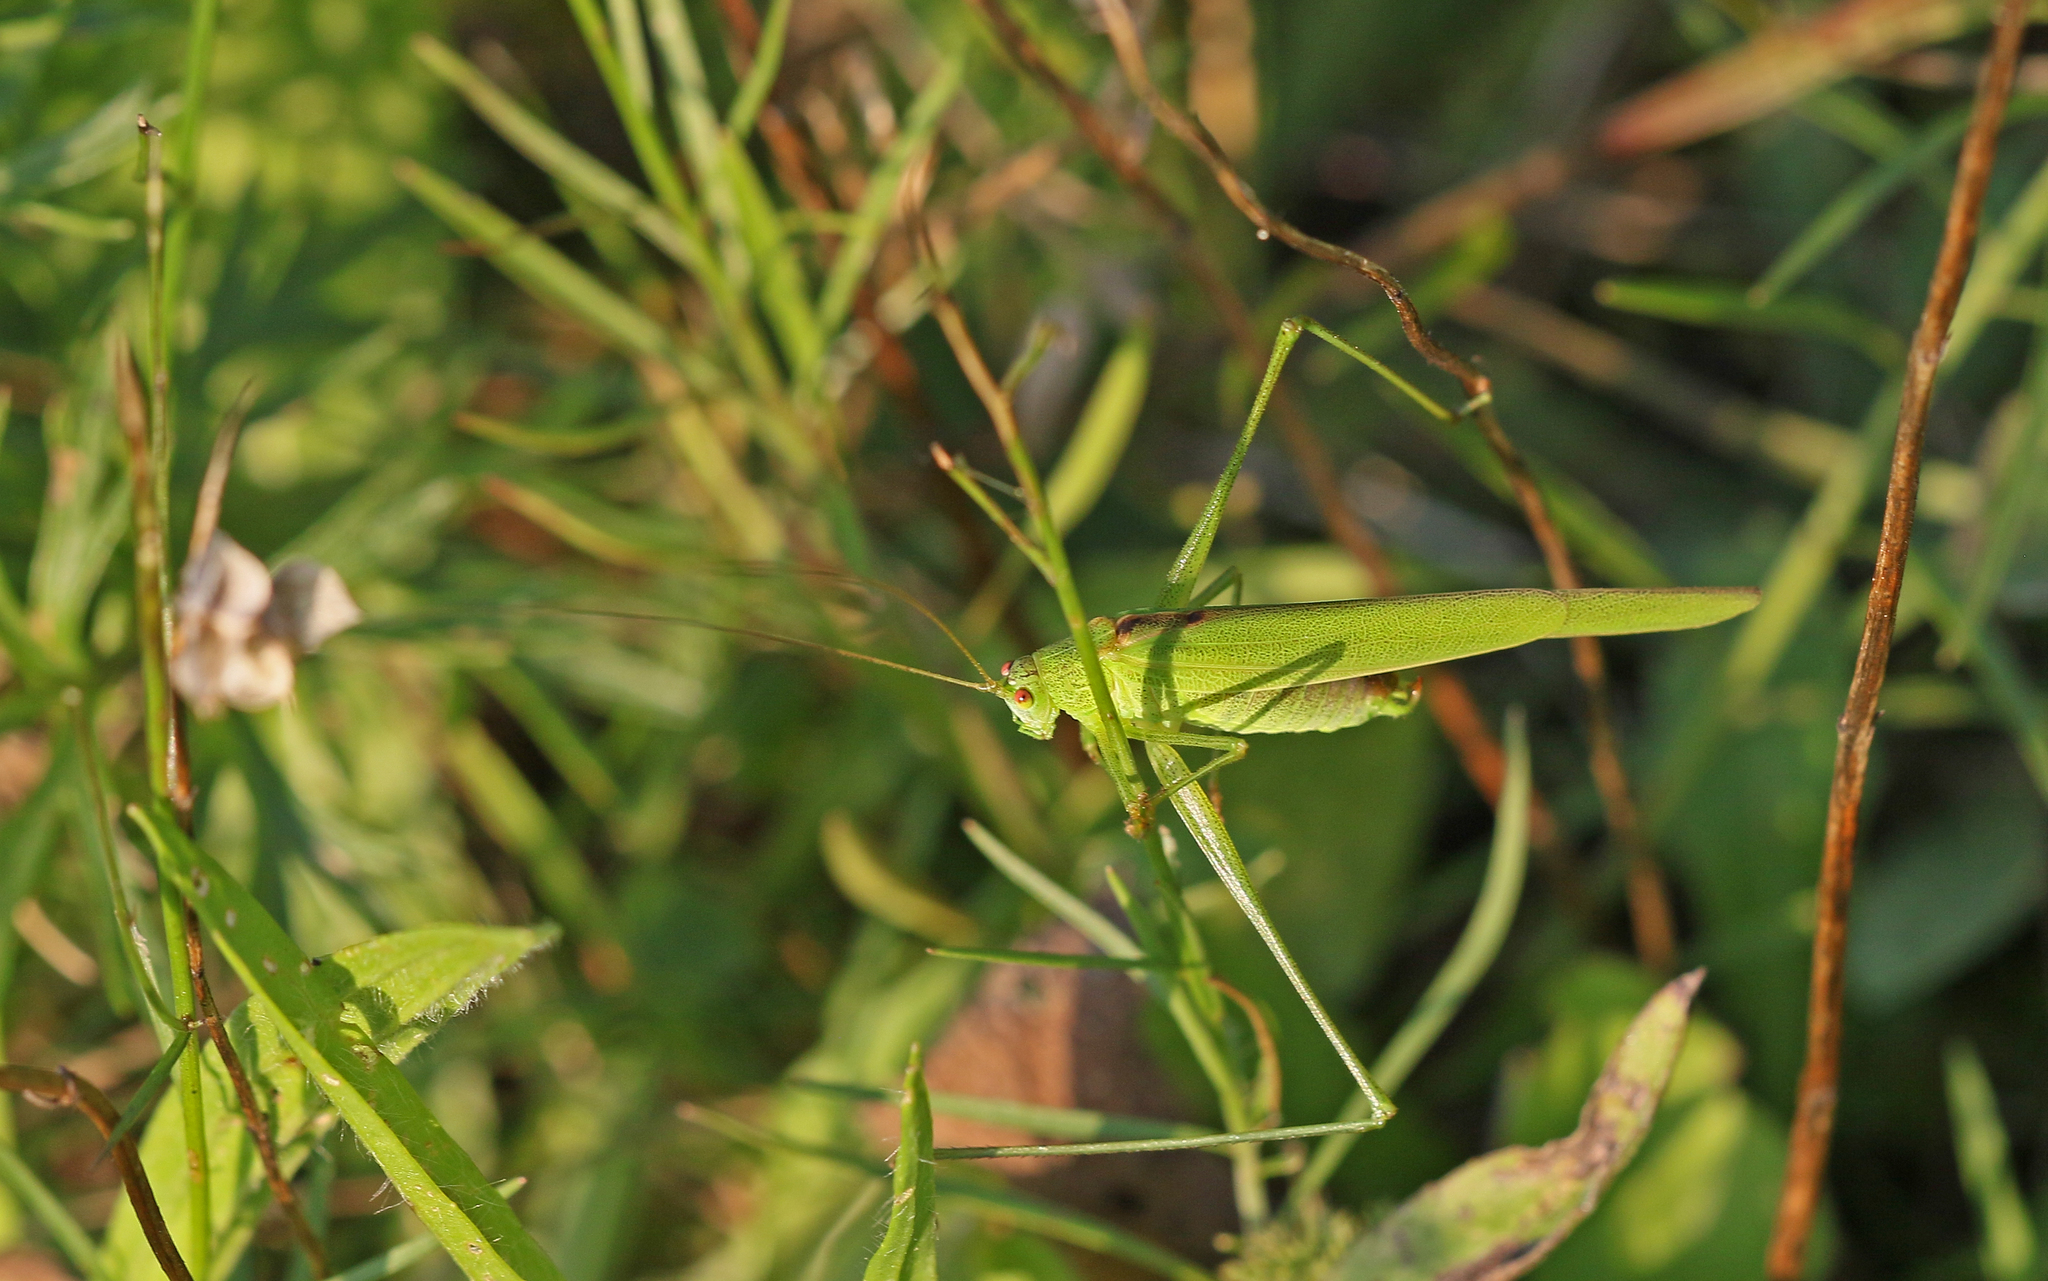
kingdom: Animalia
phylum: Arthropoda
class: Insecta
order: Orthoptera
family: Tettigoniidae
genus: Phaneroptera
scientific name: Phaneroptera falcata
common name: Sickle-bearing bush-cricket
